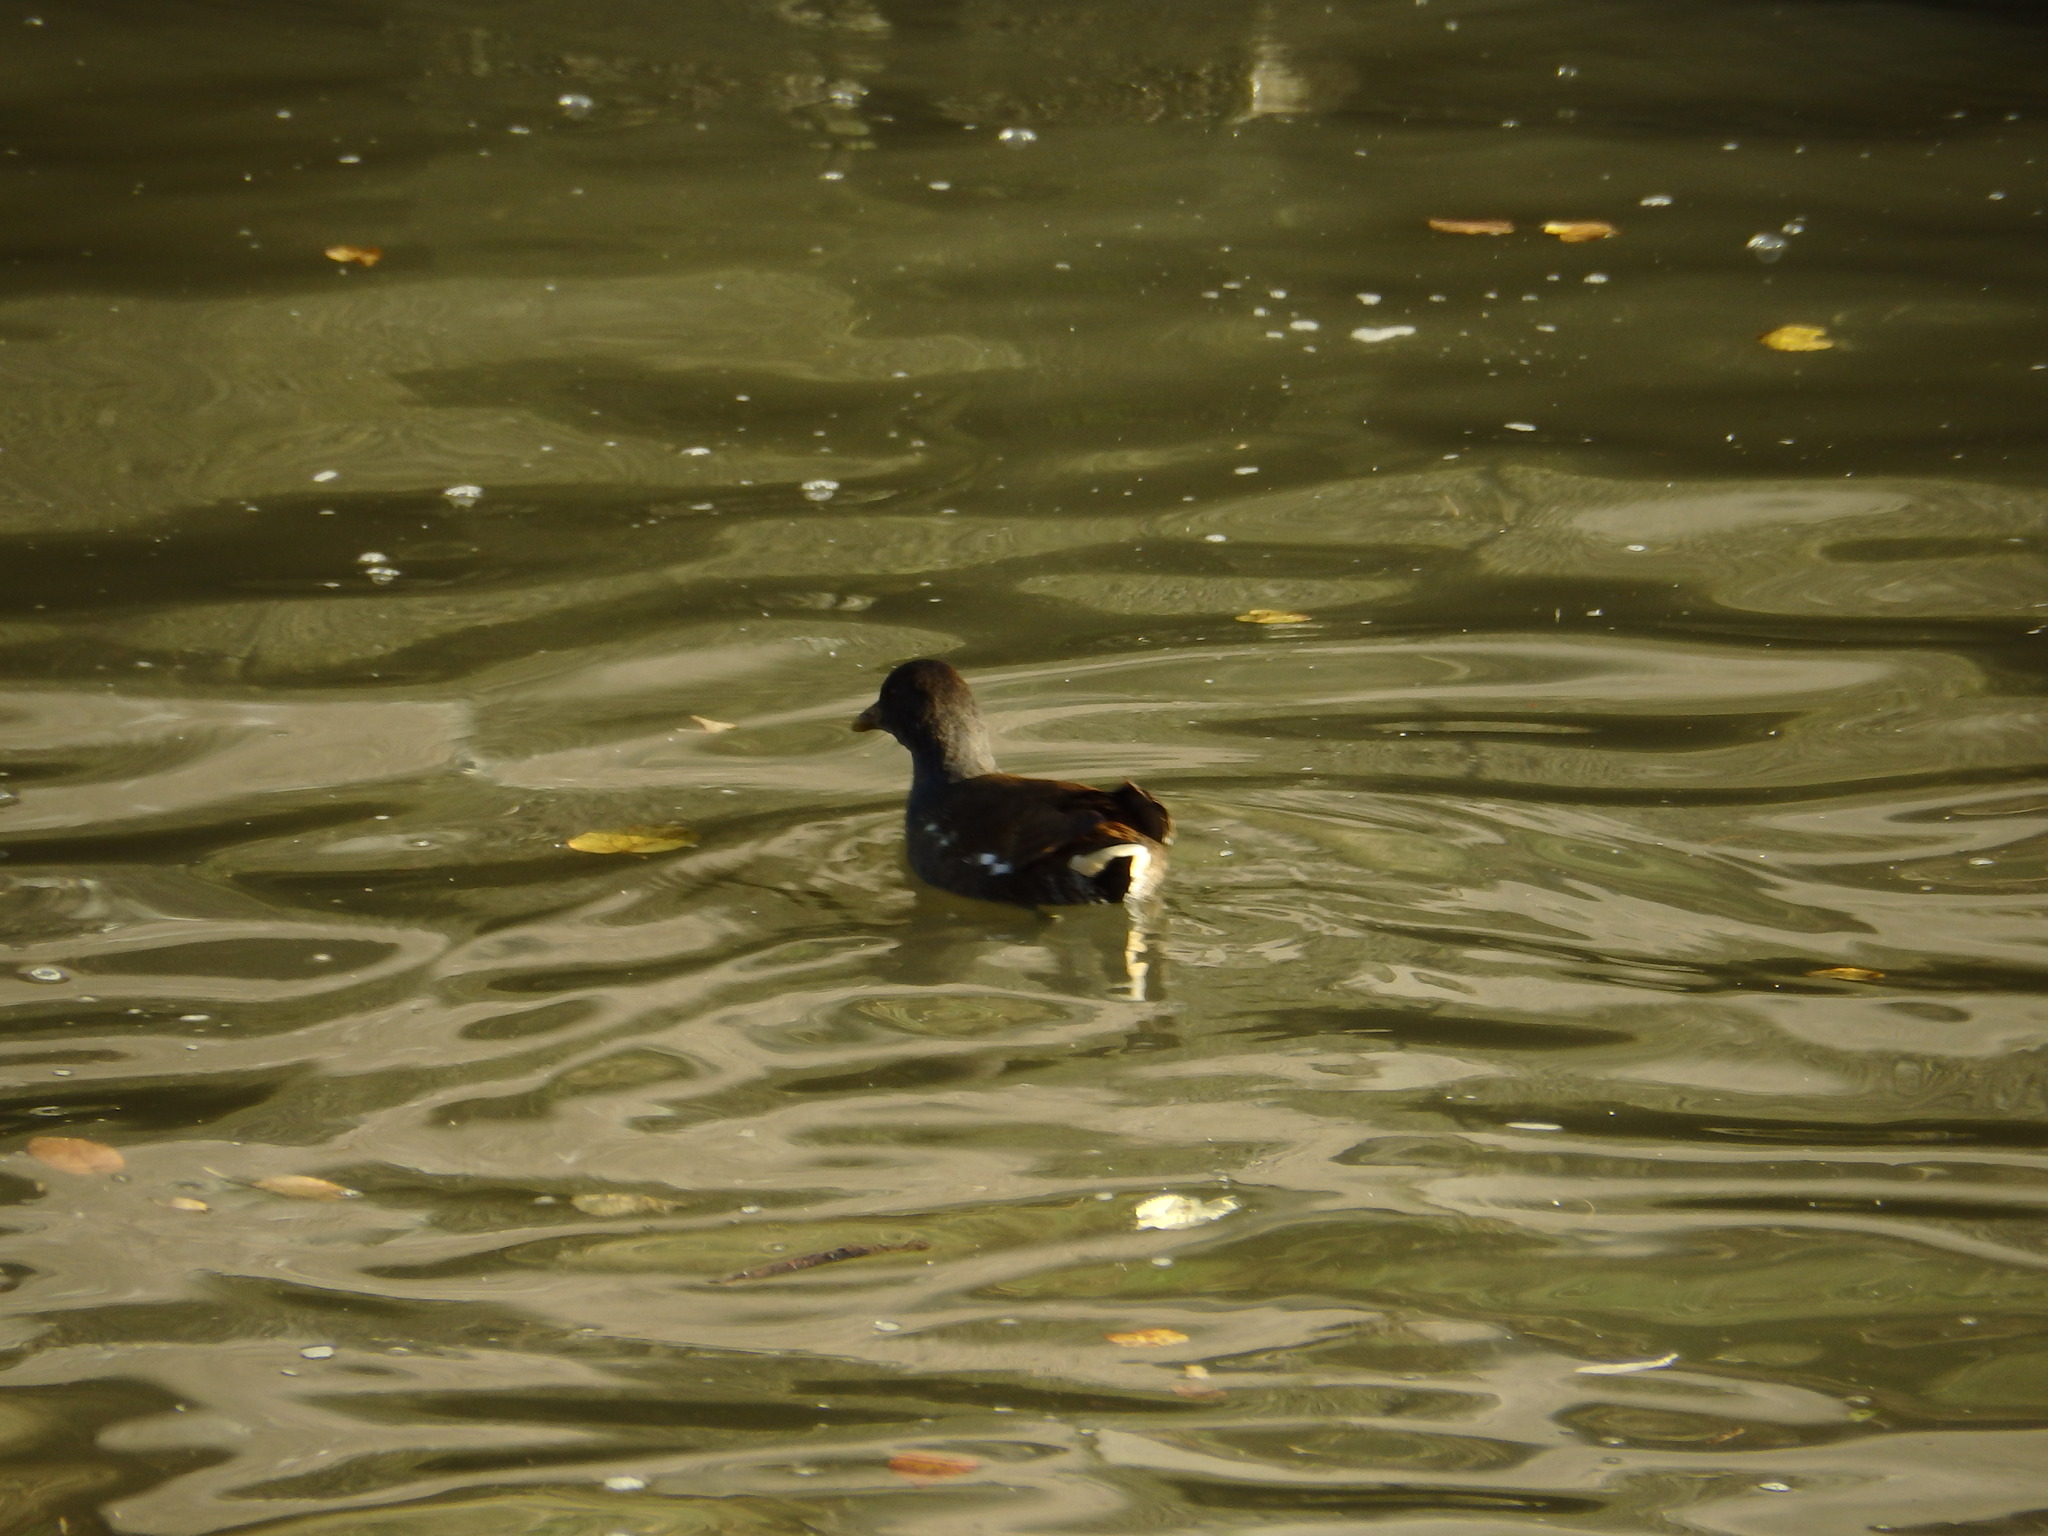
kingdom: Animalia
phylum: Chordata
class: Aves
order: Gruiformes
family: Rallidae
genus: Gallinula
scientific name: Gallinula chloropus
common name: Common moorhen
